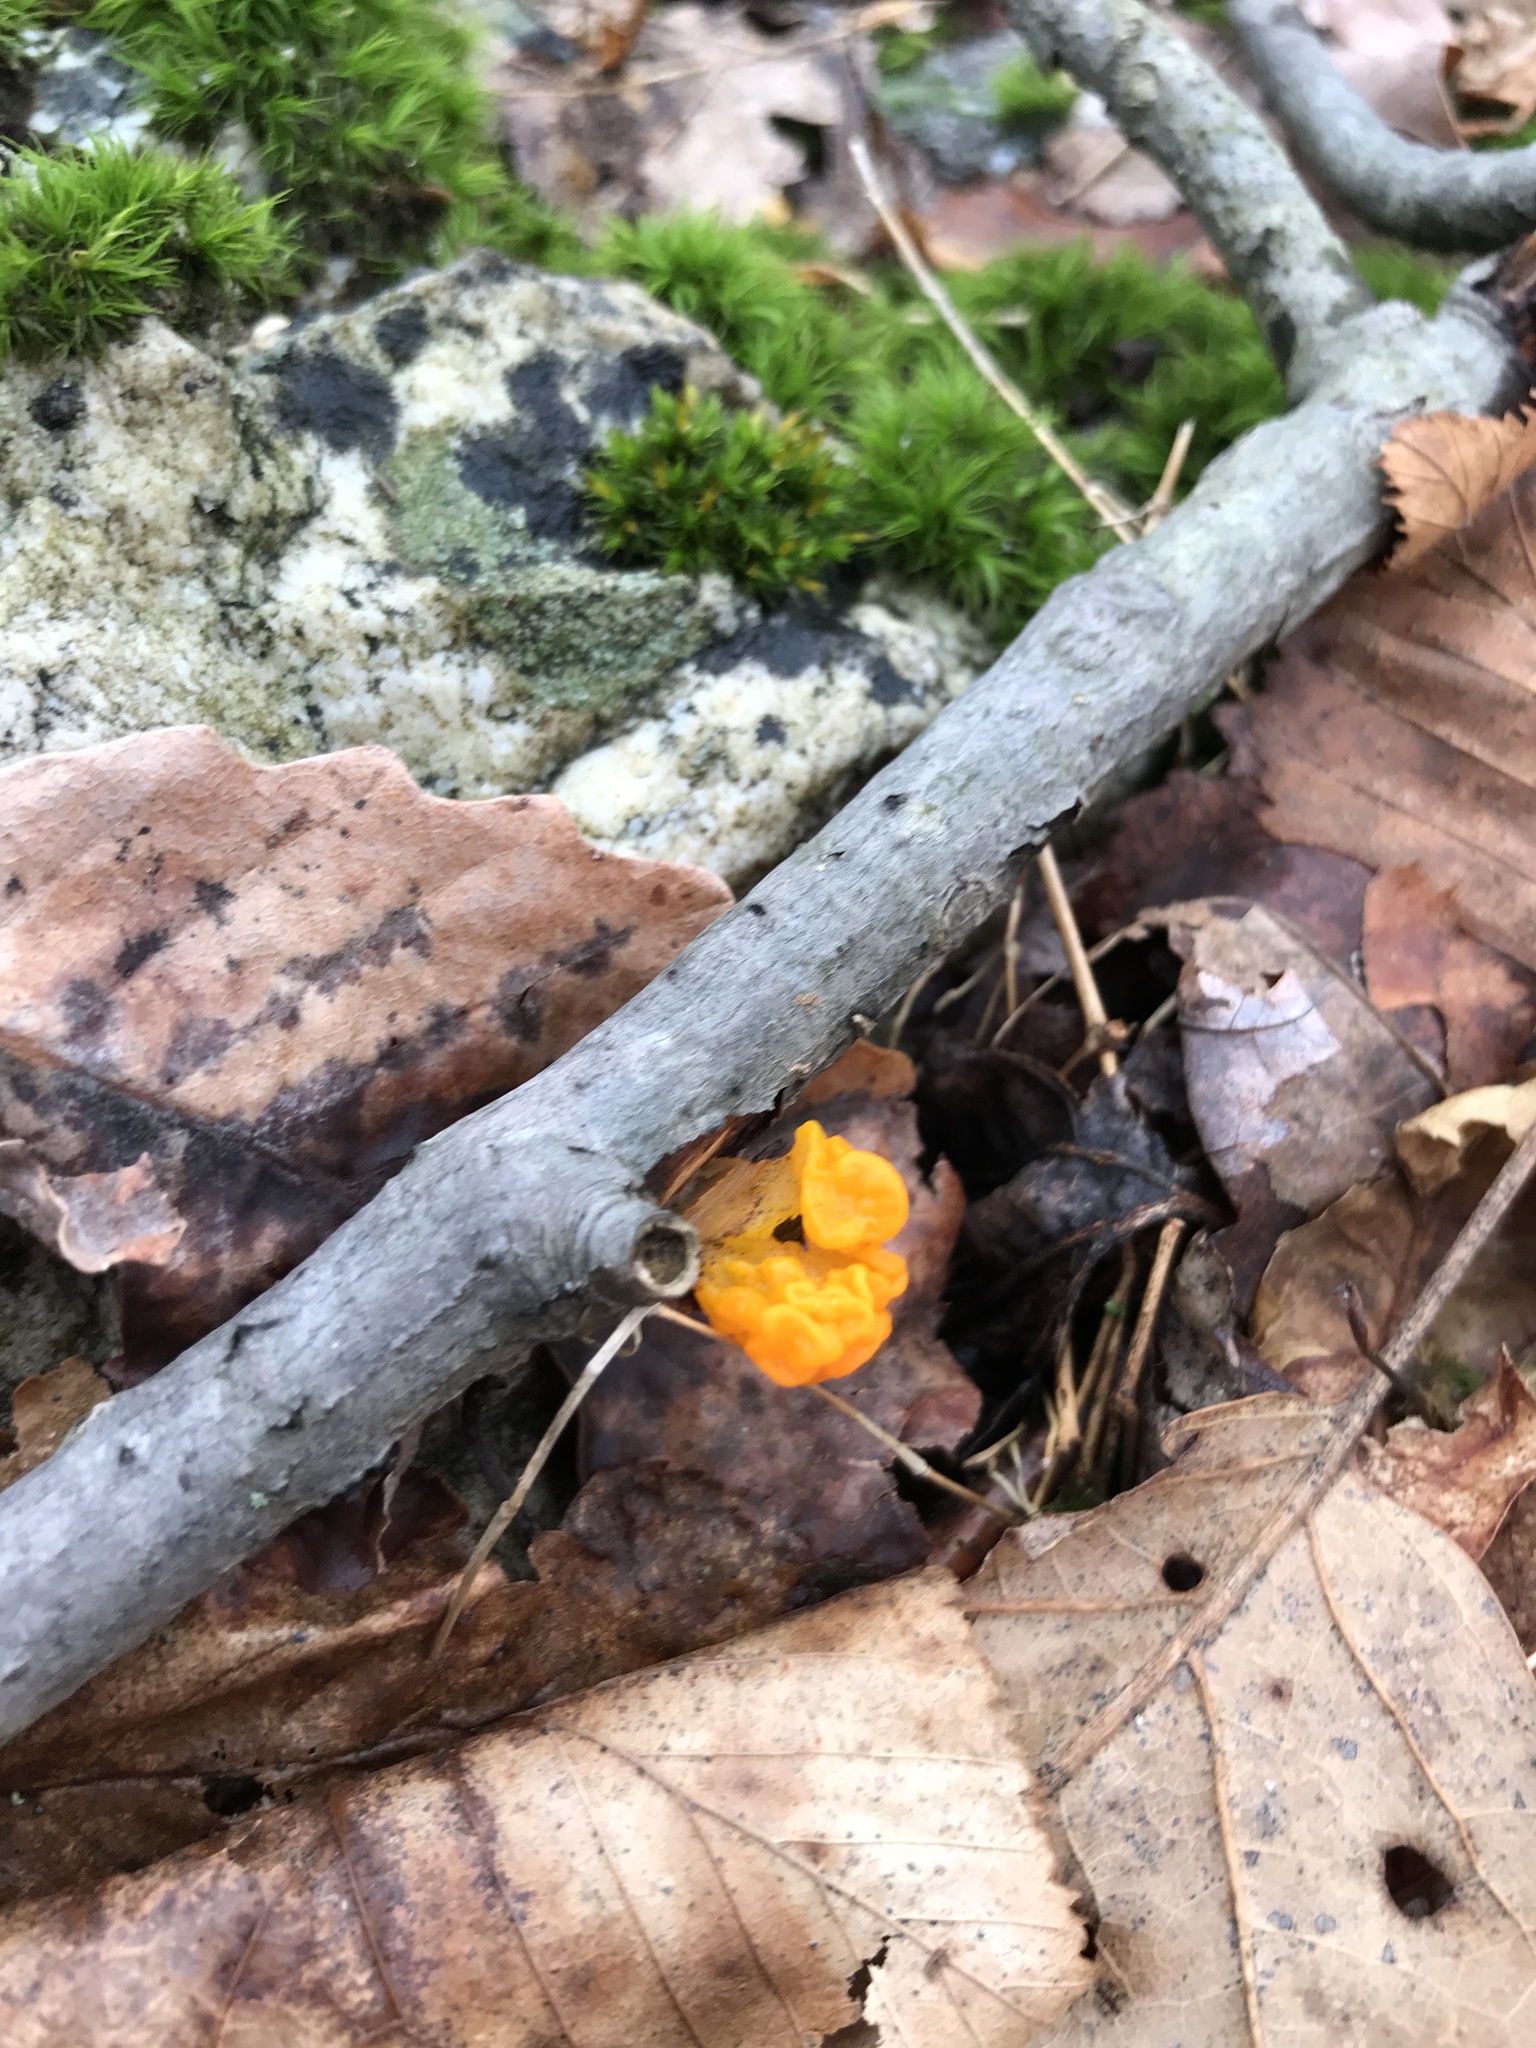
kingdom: Fungi
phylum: Basidiomycota
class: Tremellomycetes
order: Tremellales
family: Tremellaceae
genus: Tremella
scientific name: Tremella mesenterica
